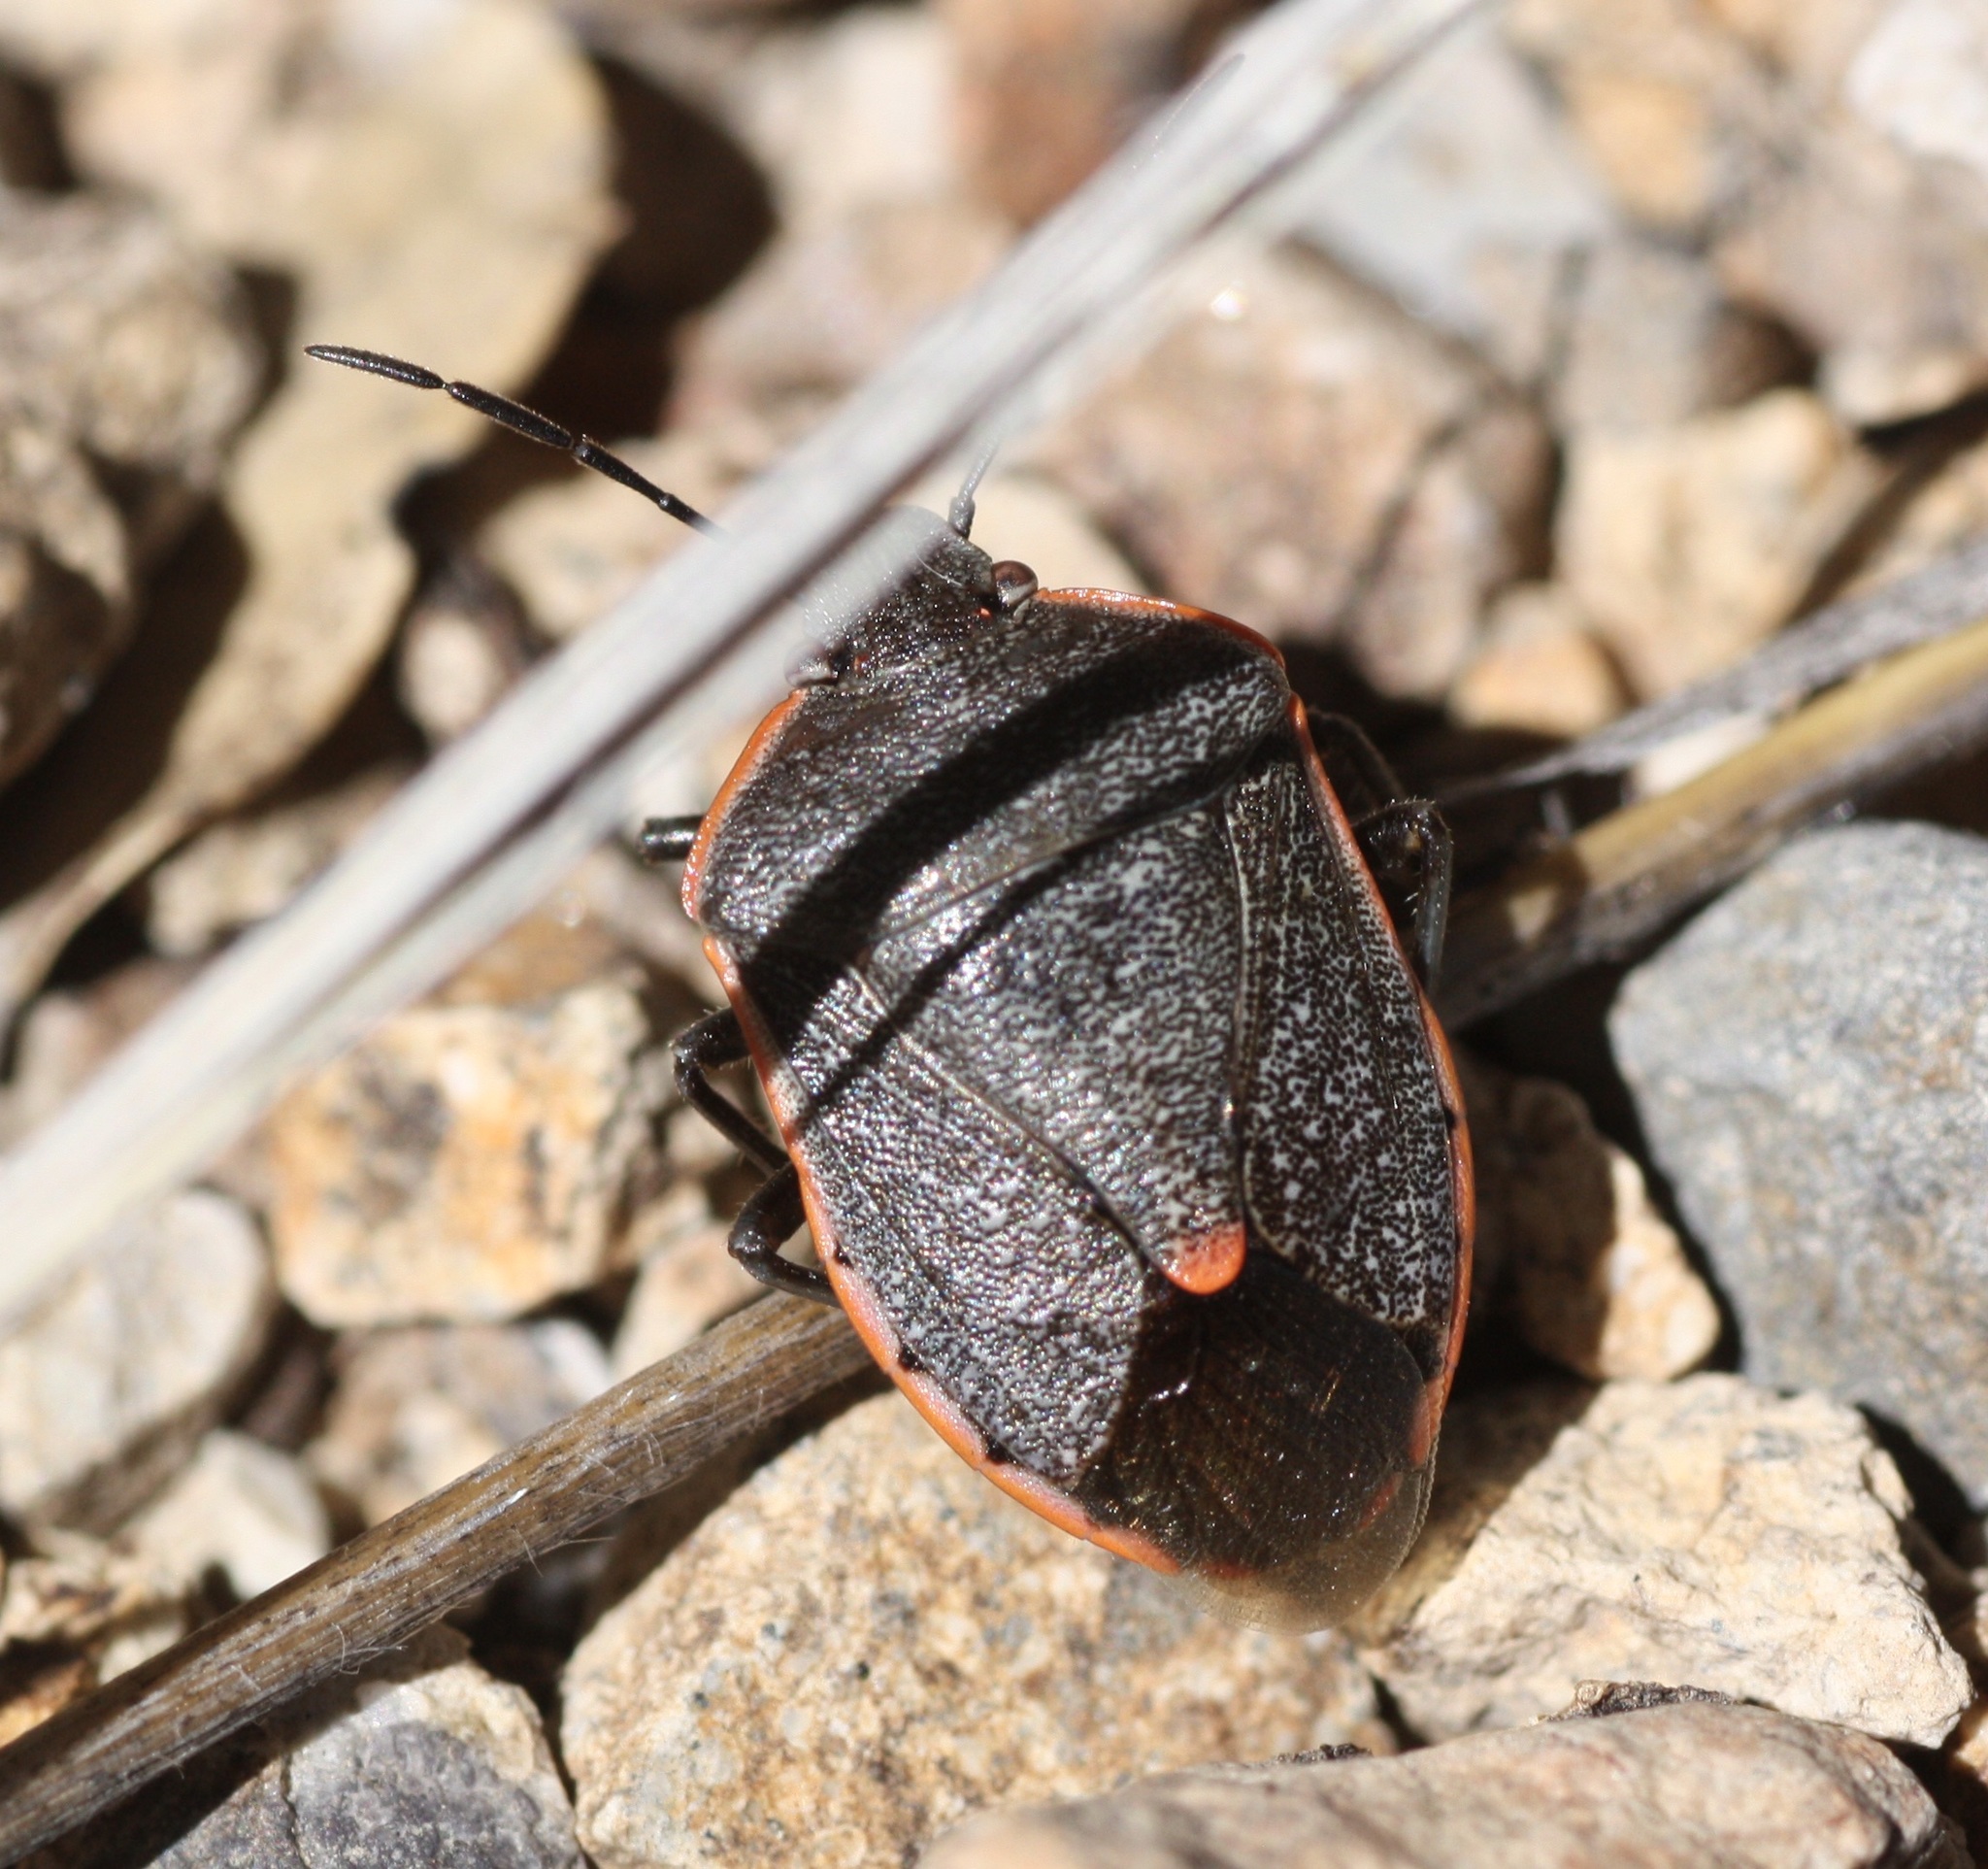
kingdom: Animalia
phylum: Arthropoda
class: Insecta
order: Hemiptera
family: Pentatomidae
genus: Chlorochroa
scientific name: Chlorochroa ligata
